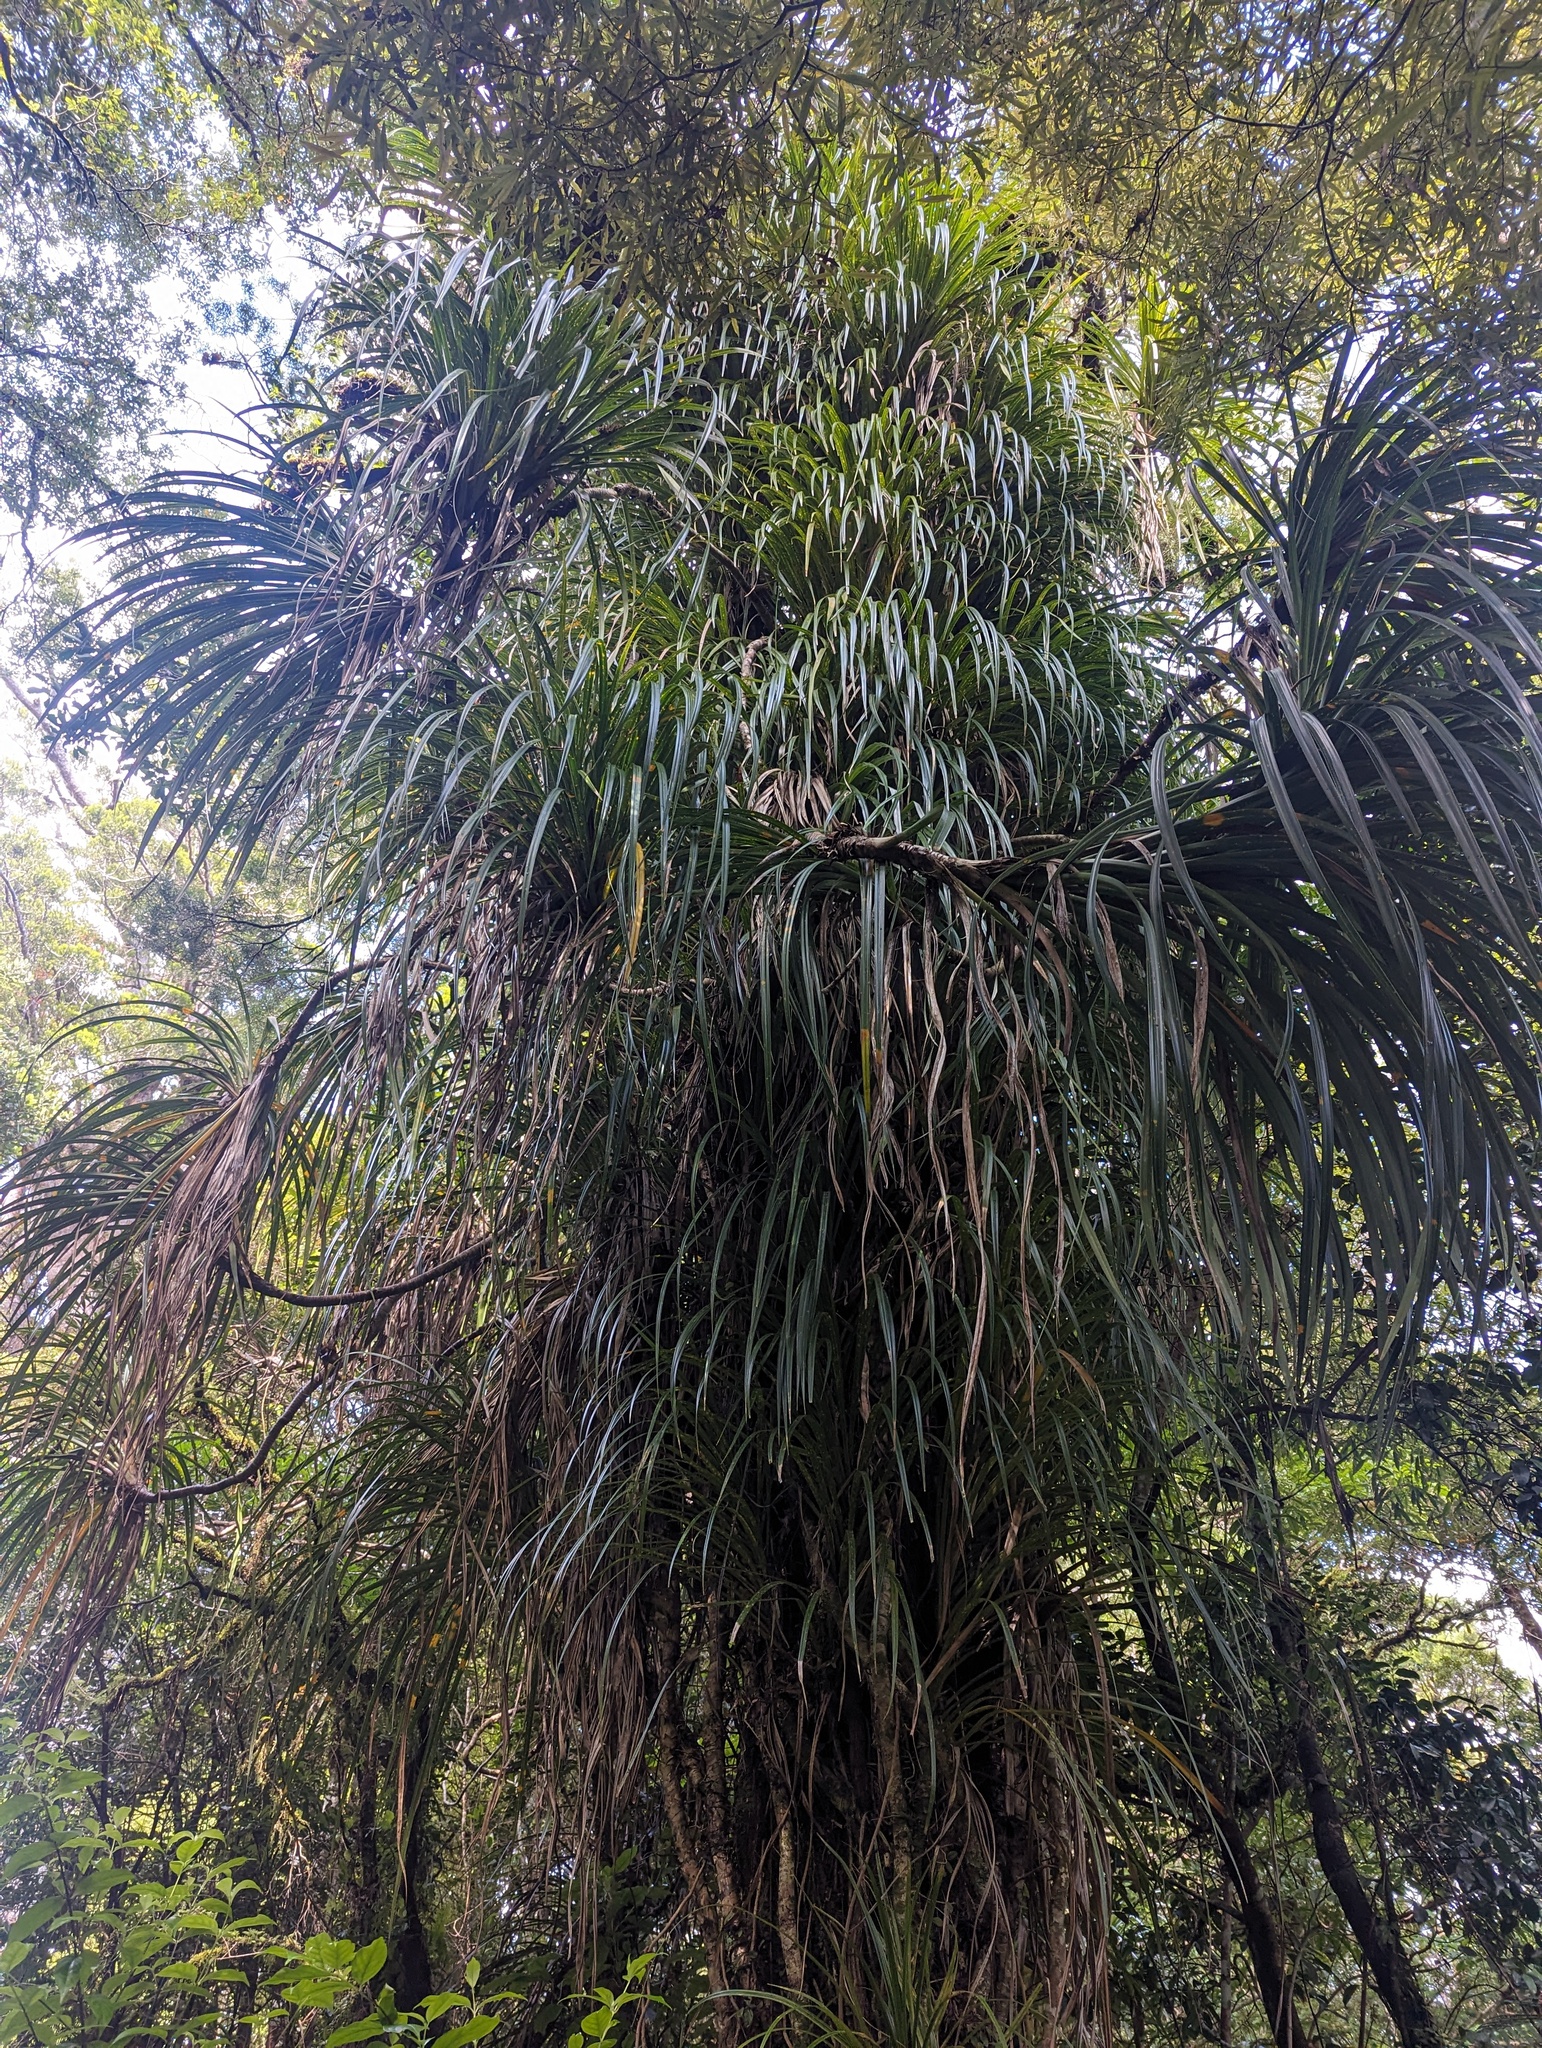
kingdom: Plantae
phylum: Tracheophyta
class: Liliopsida
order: Pandanales
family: Pandanaceae
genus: Freycinetia
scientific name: Freycinetia banksii
